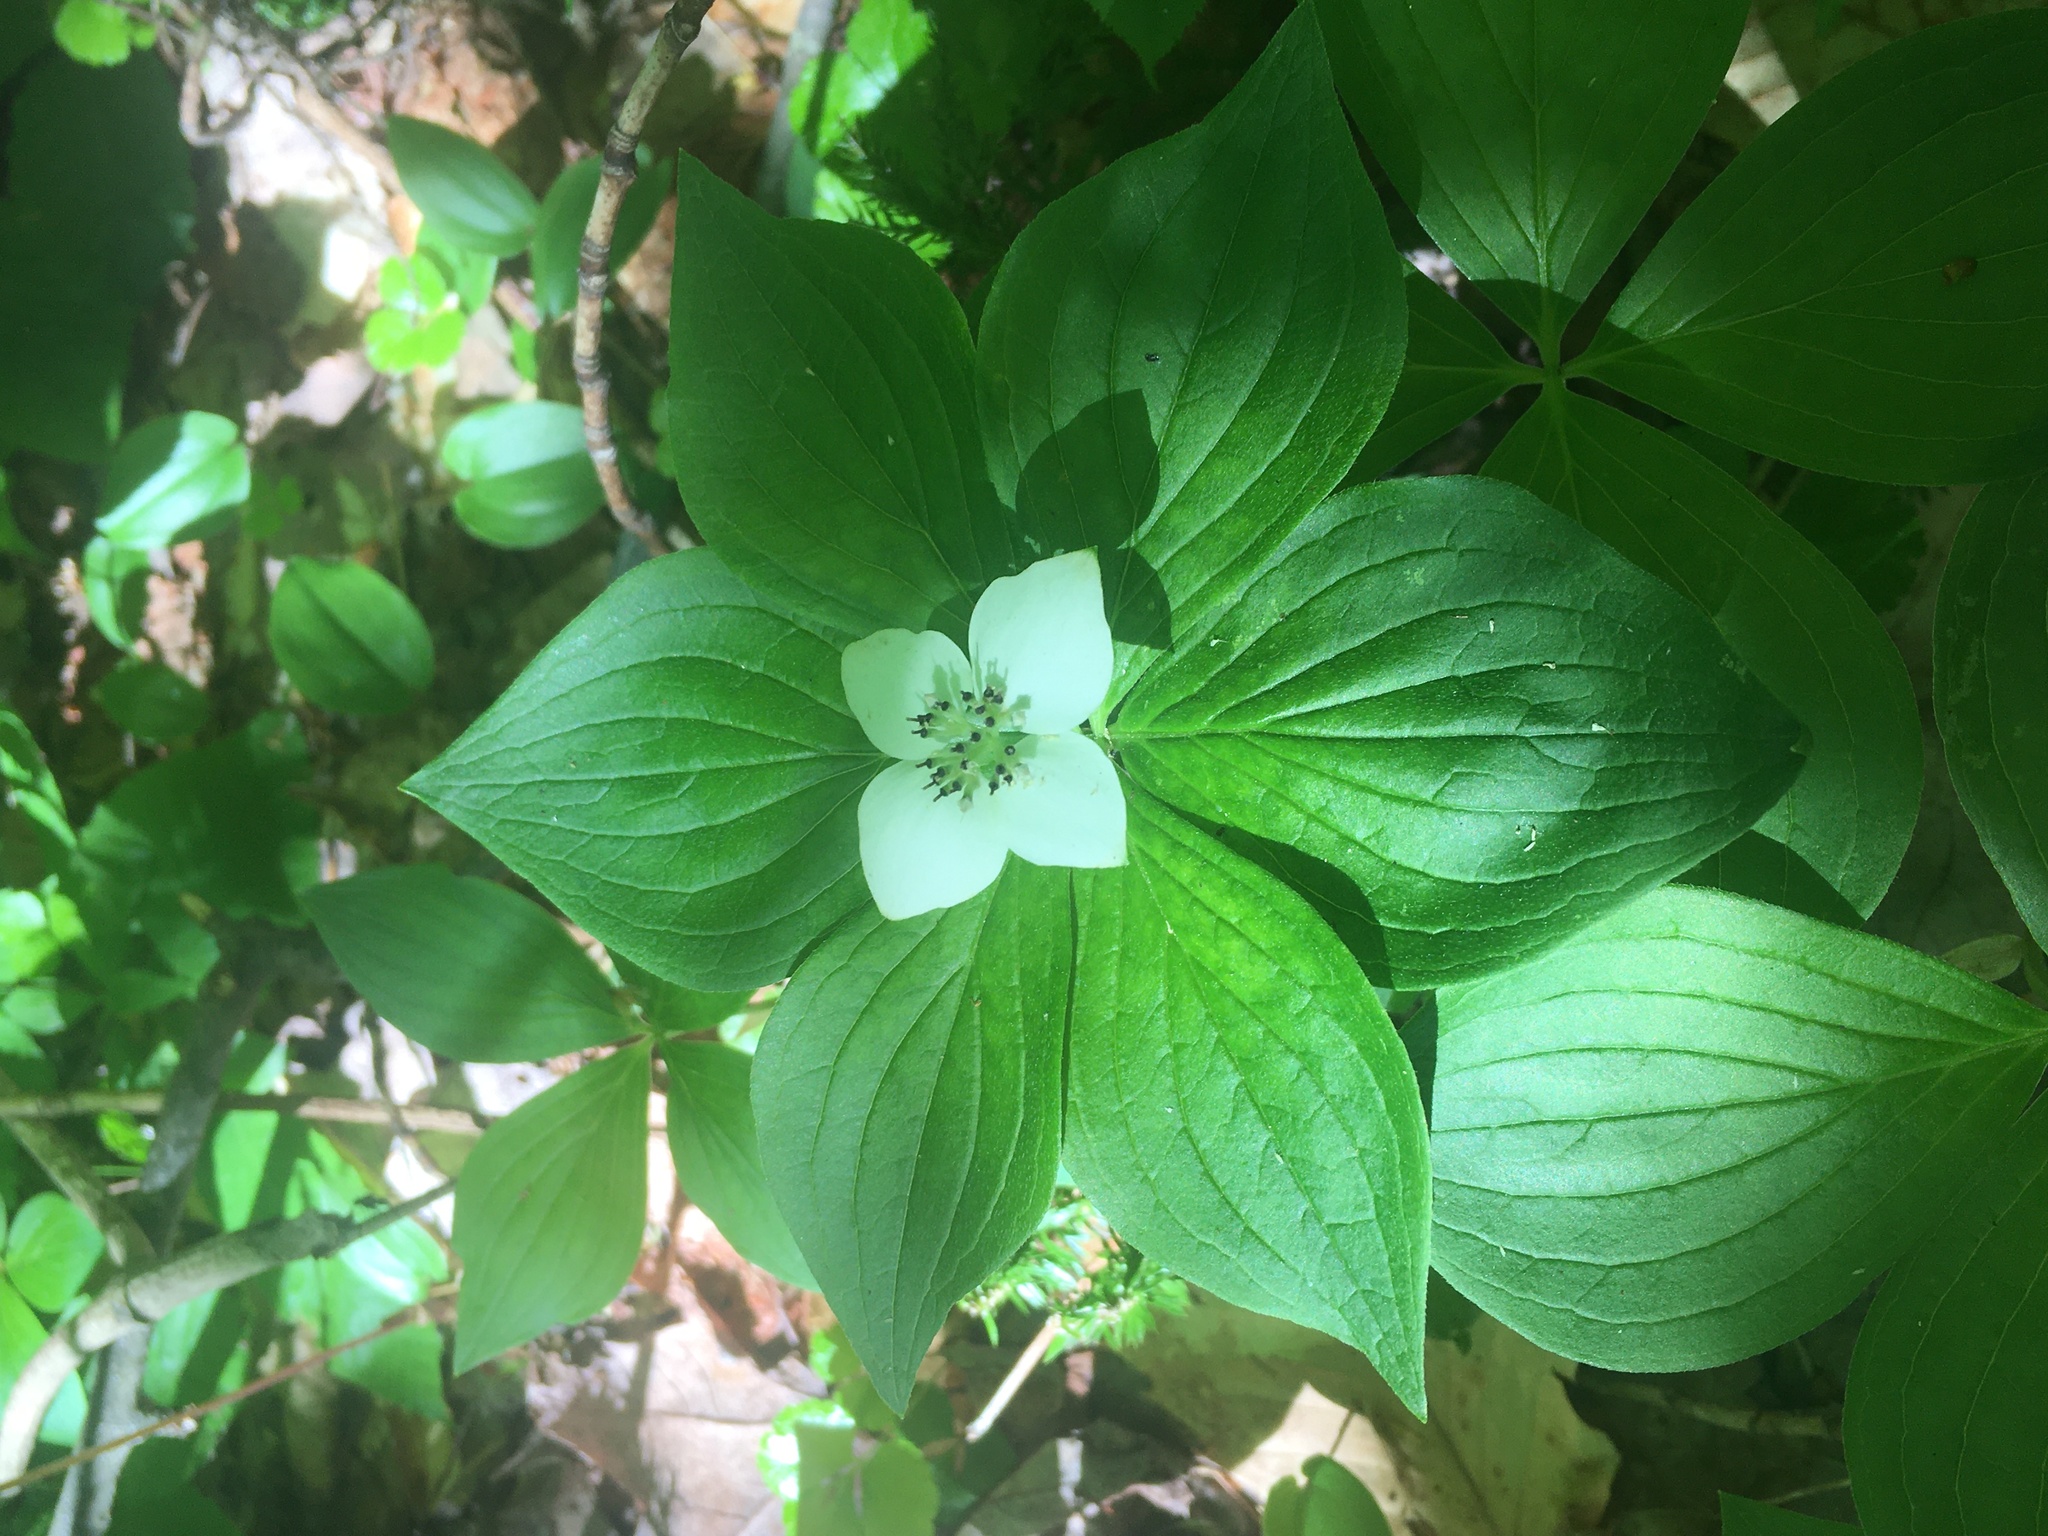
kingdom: Plantae
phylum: Tracheophyta
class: Magnoliopsida
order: Cornales
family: Cornaceae
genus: Cornus
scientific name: Cornus canadensis
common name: Creeping dogwood
